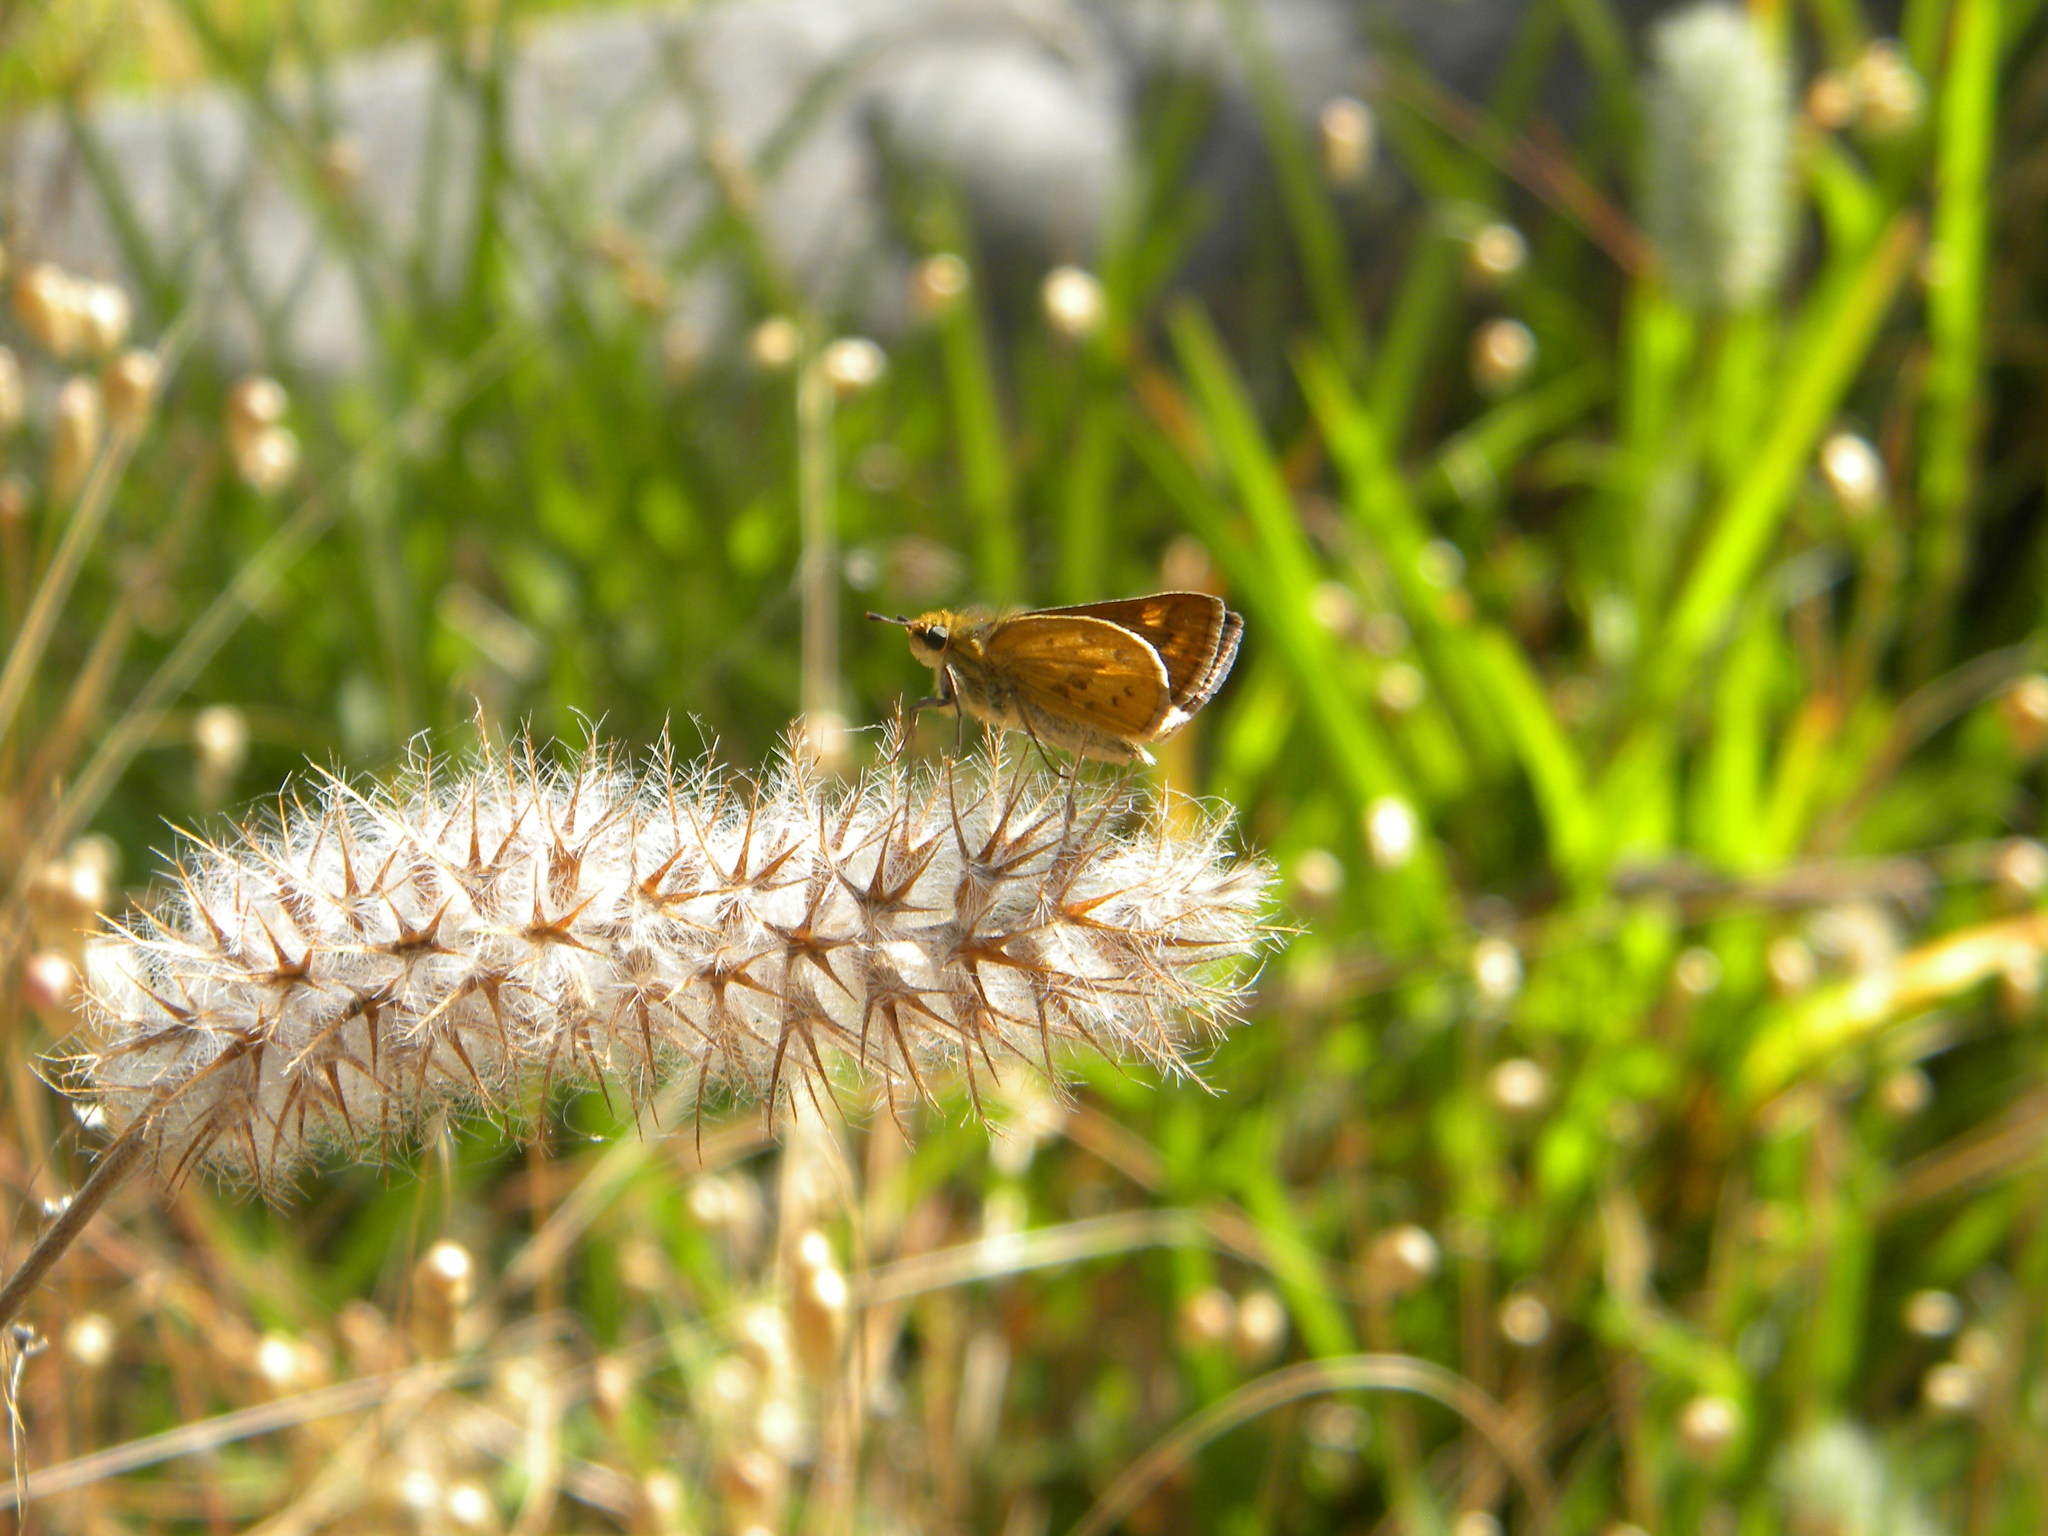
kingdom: Animalia
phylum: Arthropoda
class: Insecta
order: Lepidoptera
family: Hesperiidae
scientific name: Hesperiidae
